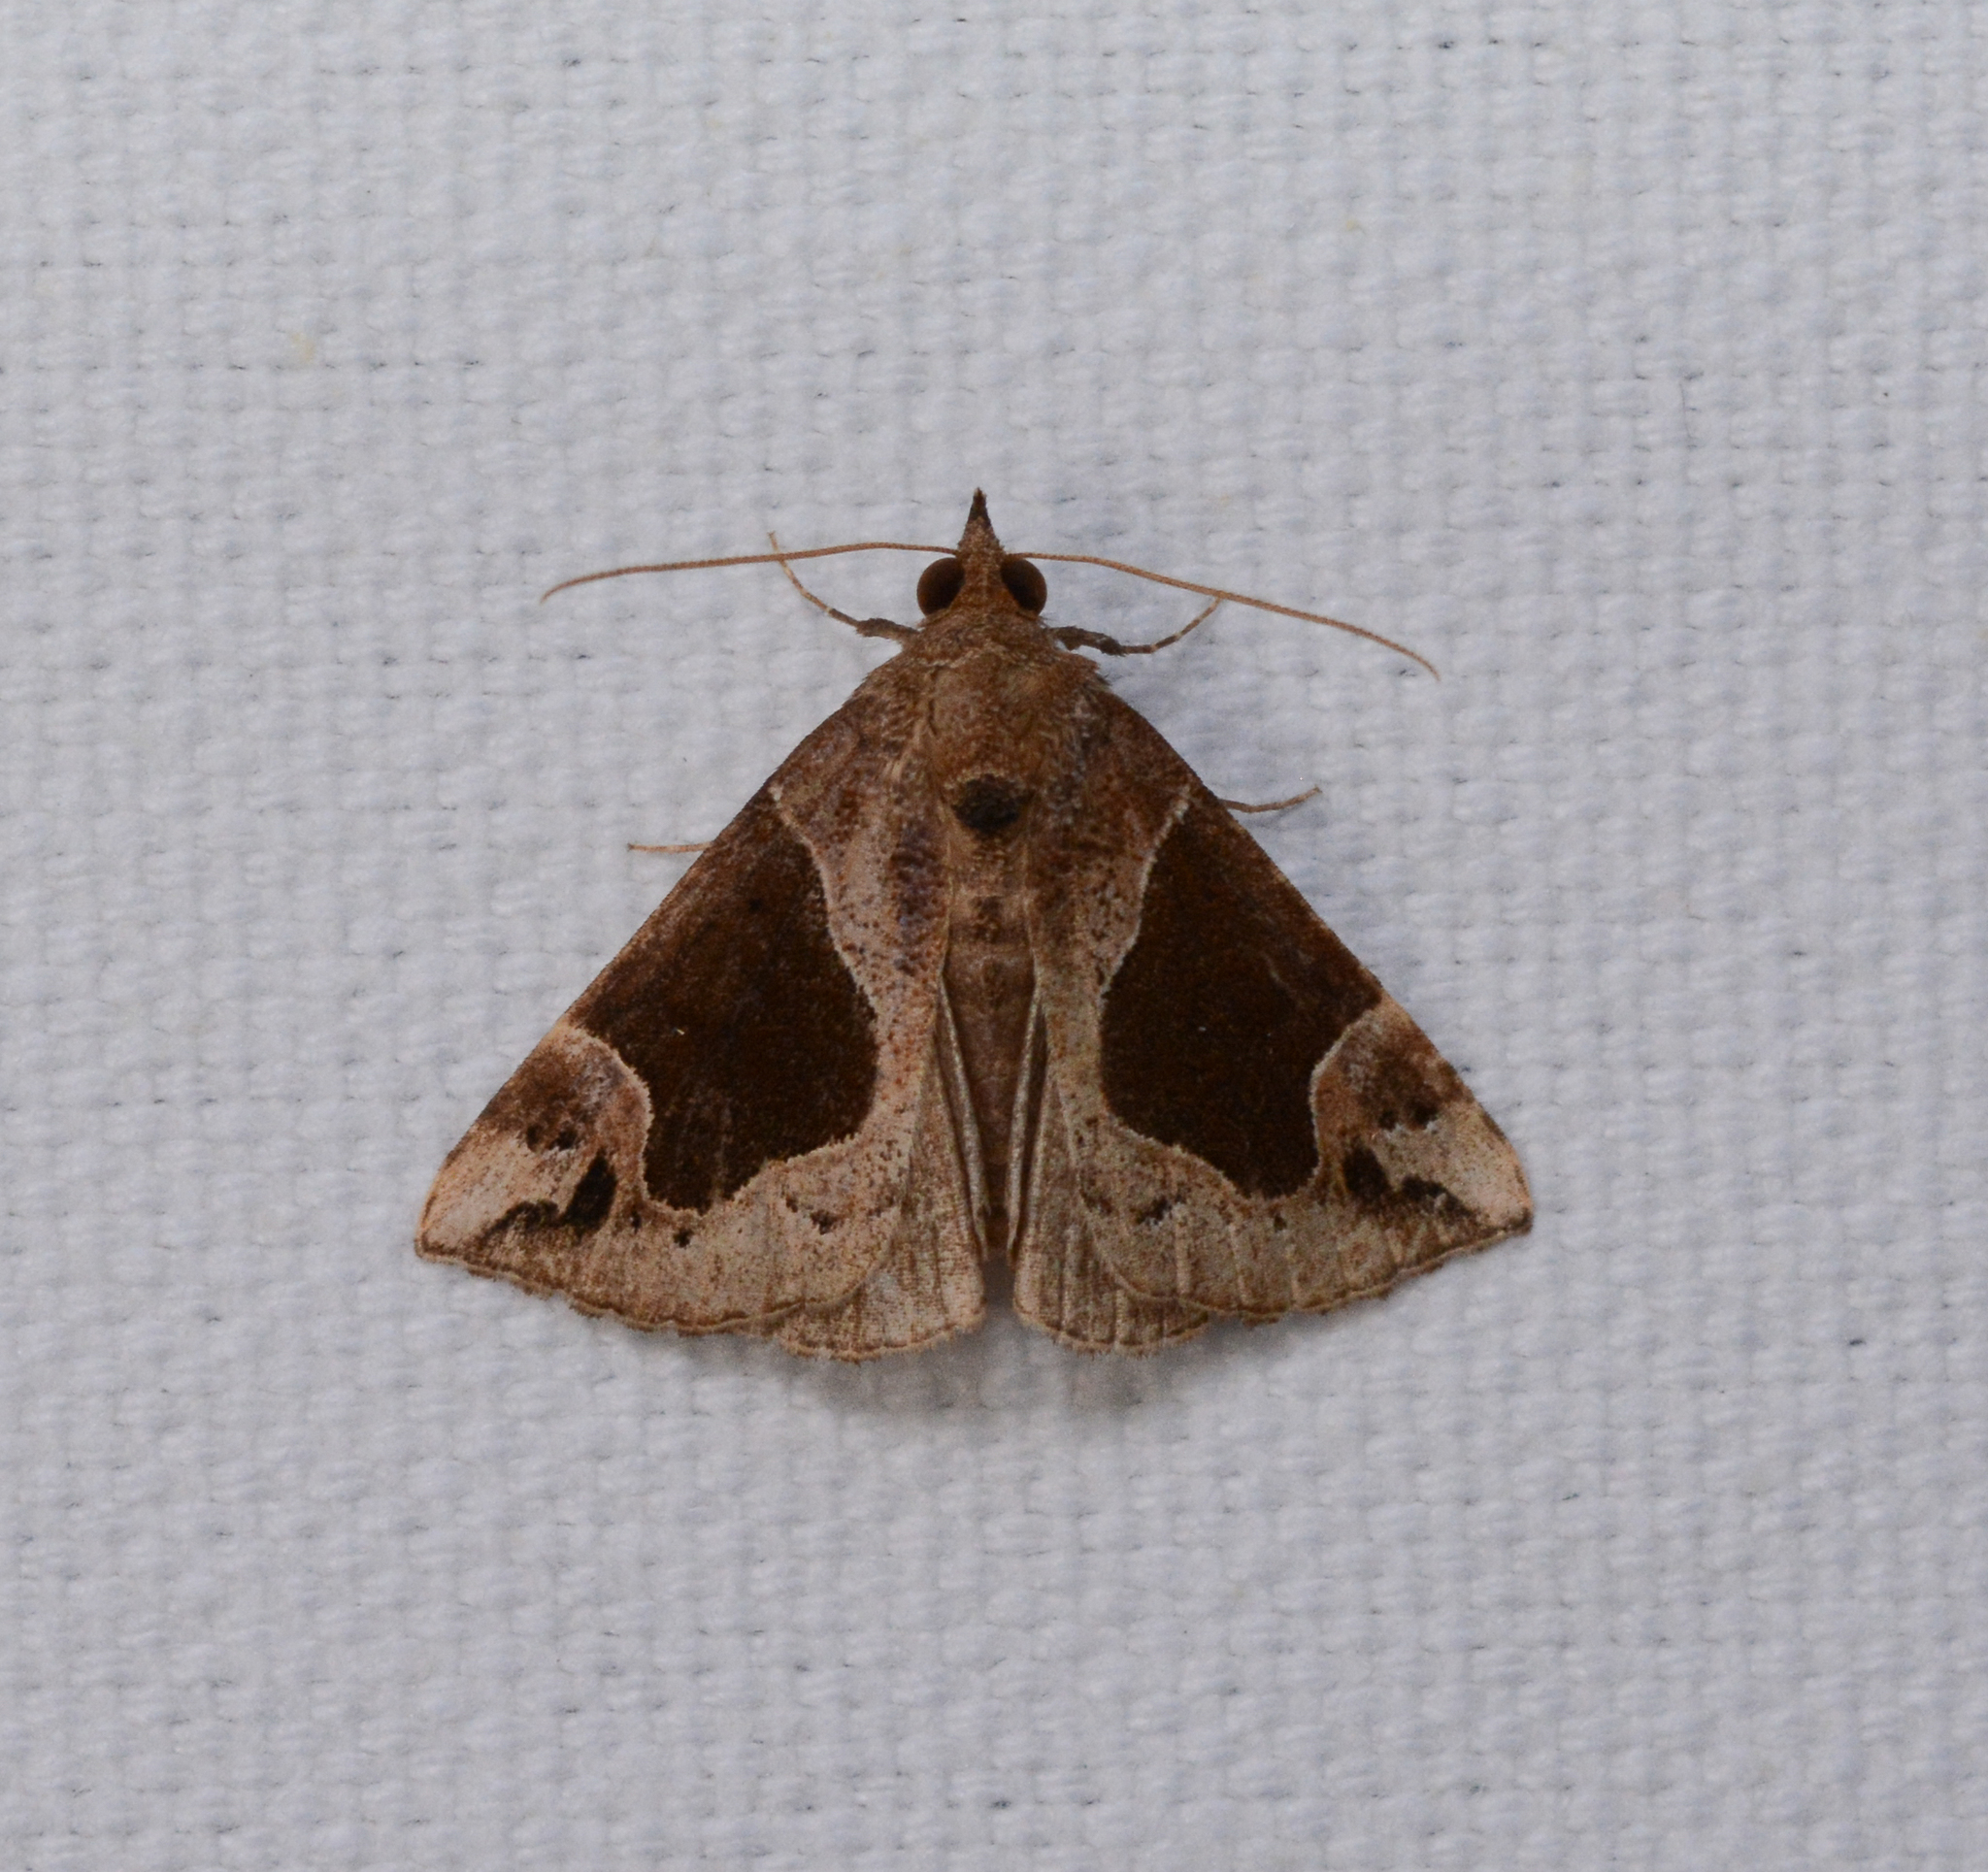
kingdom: Animalia
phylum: Arthropoda
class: Insecta
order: Lepidoptera
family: Erebidae
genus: Hypena
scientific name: Hypena manalis
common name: Flowing-line bomolocha moth
